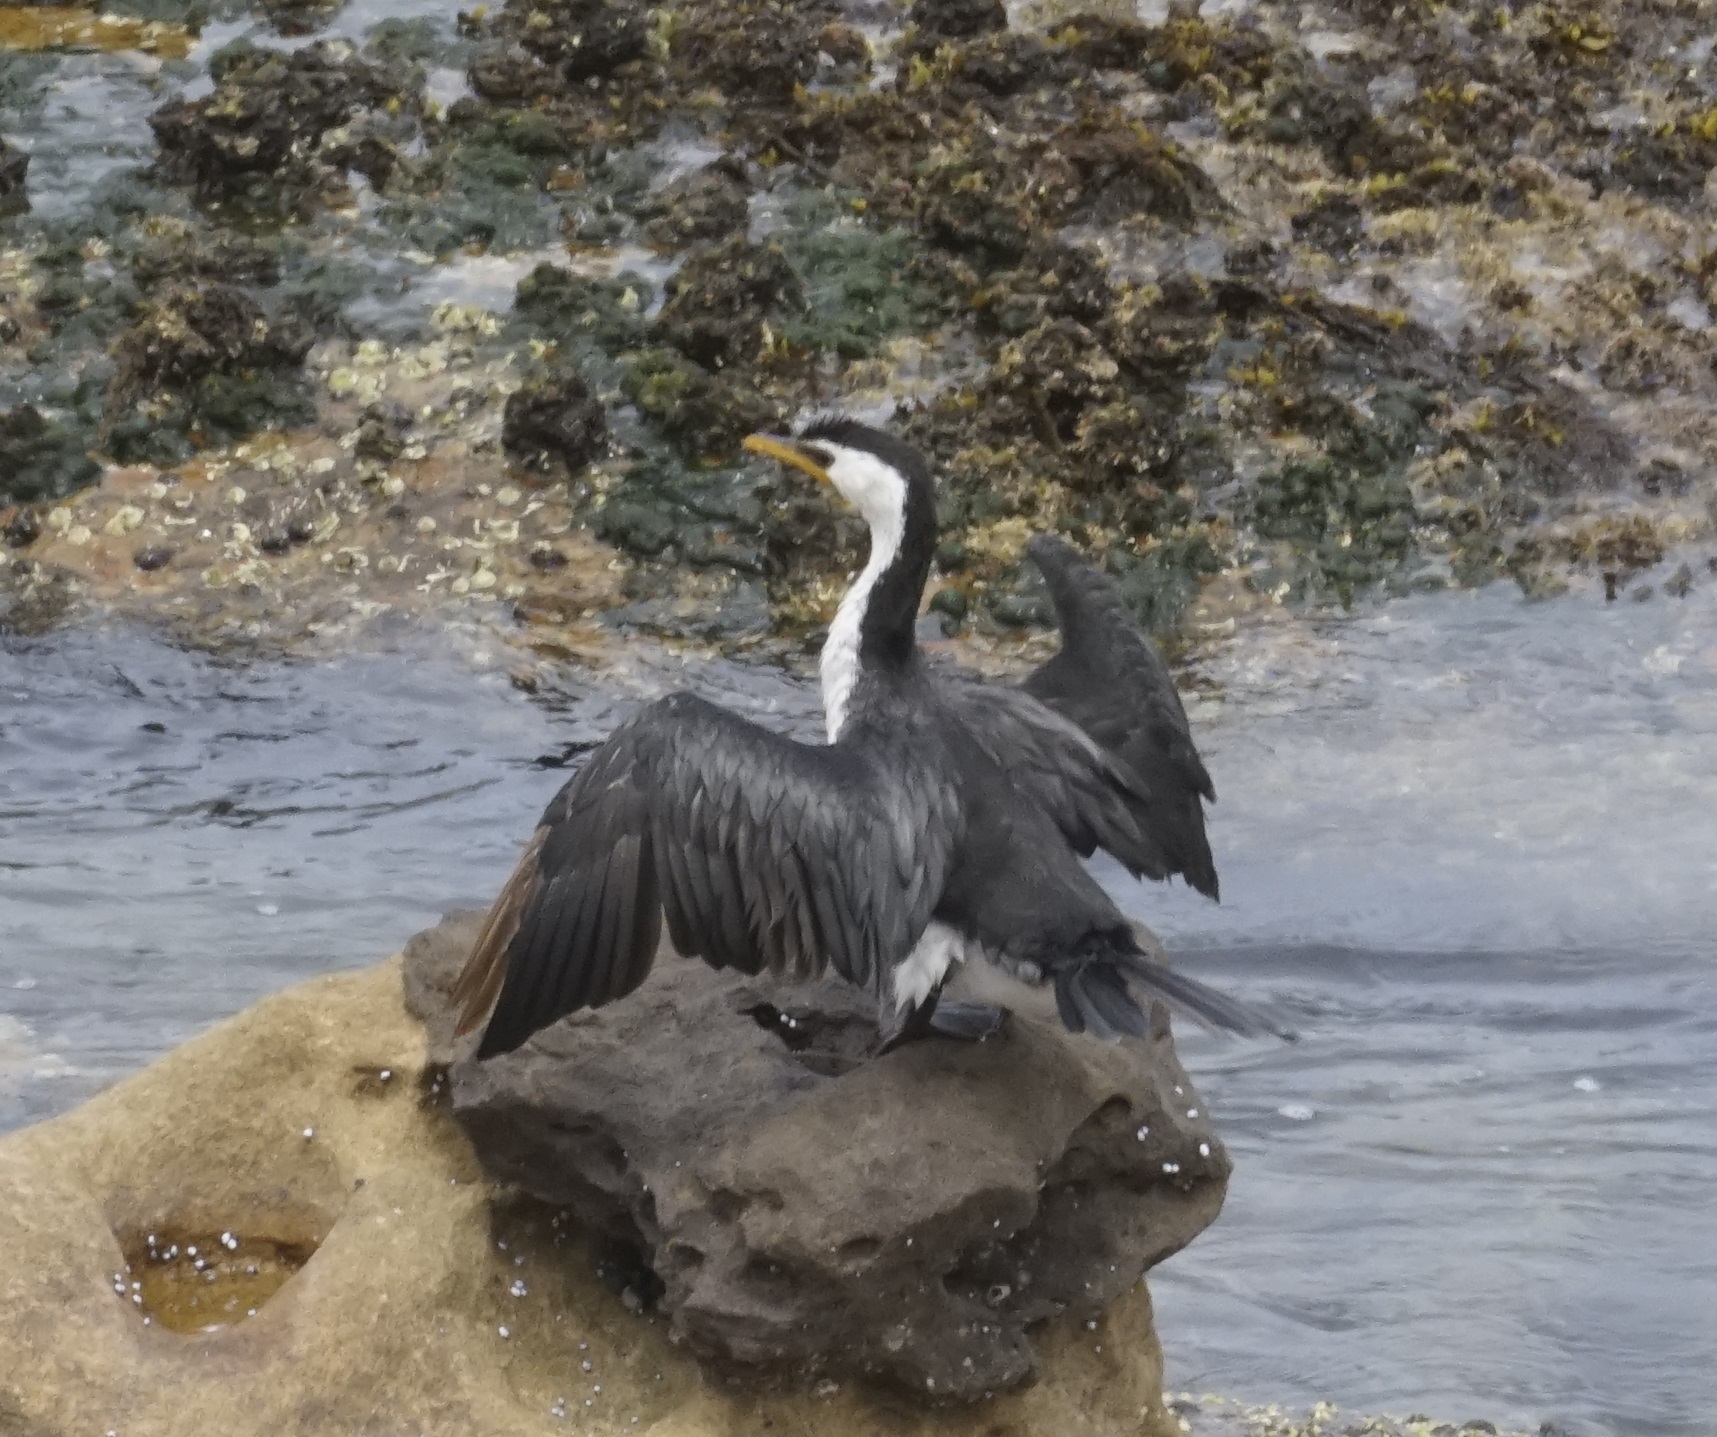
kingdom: Animalia
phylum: Chordata
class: Aves
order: Suliformes
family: Phalacrocoracidae
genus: Microcarbo
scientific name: Microcarbo melanoleucos
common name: Little pied cormorant
